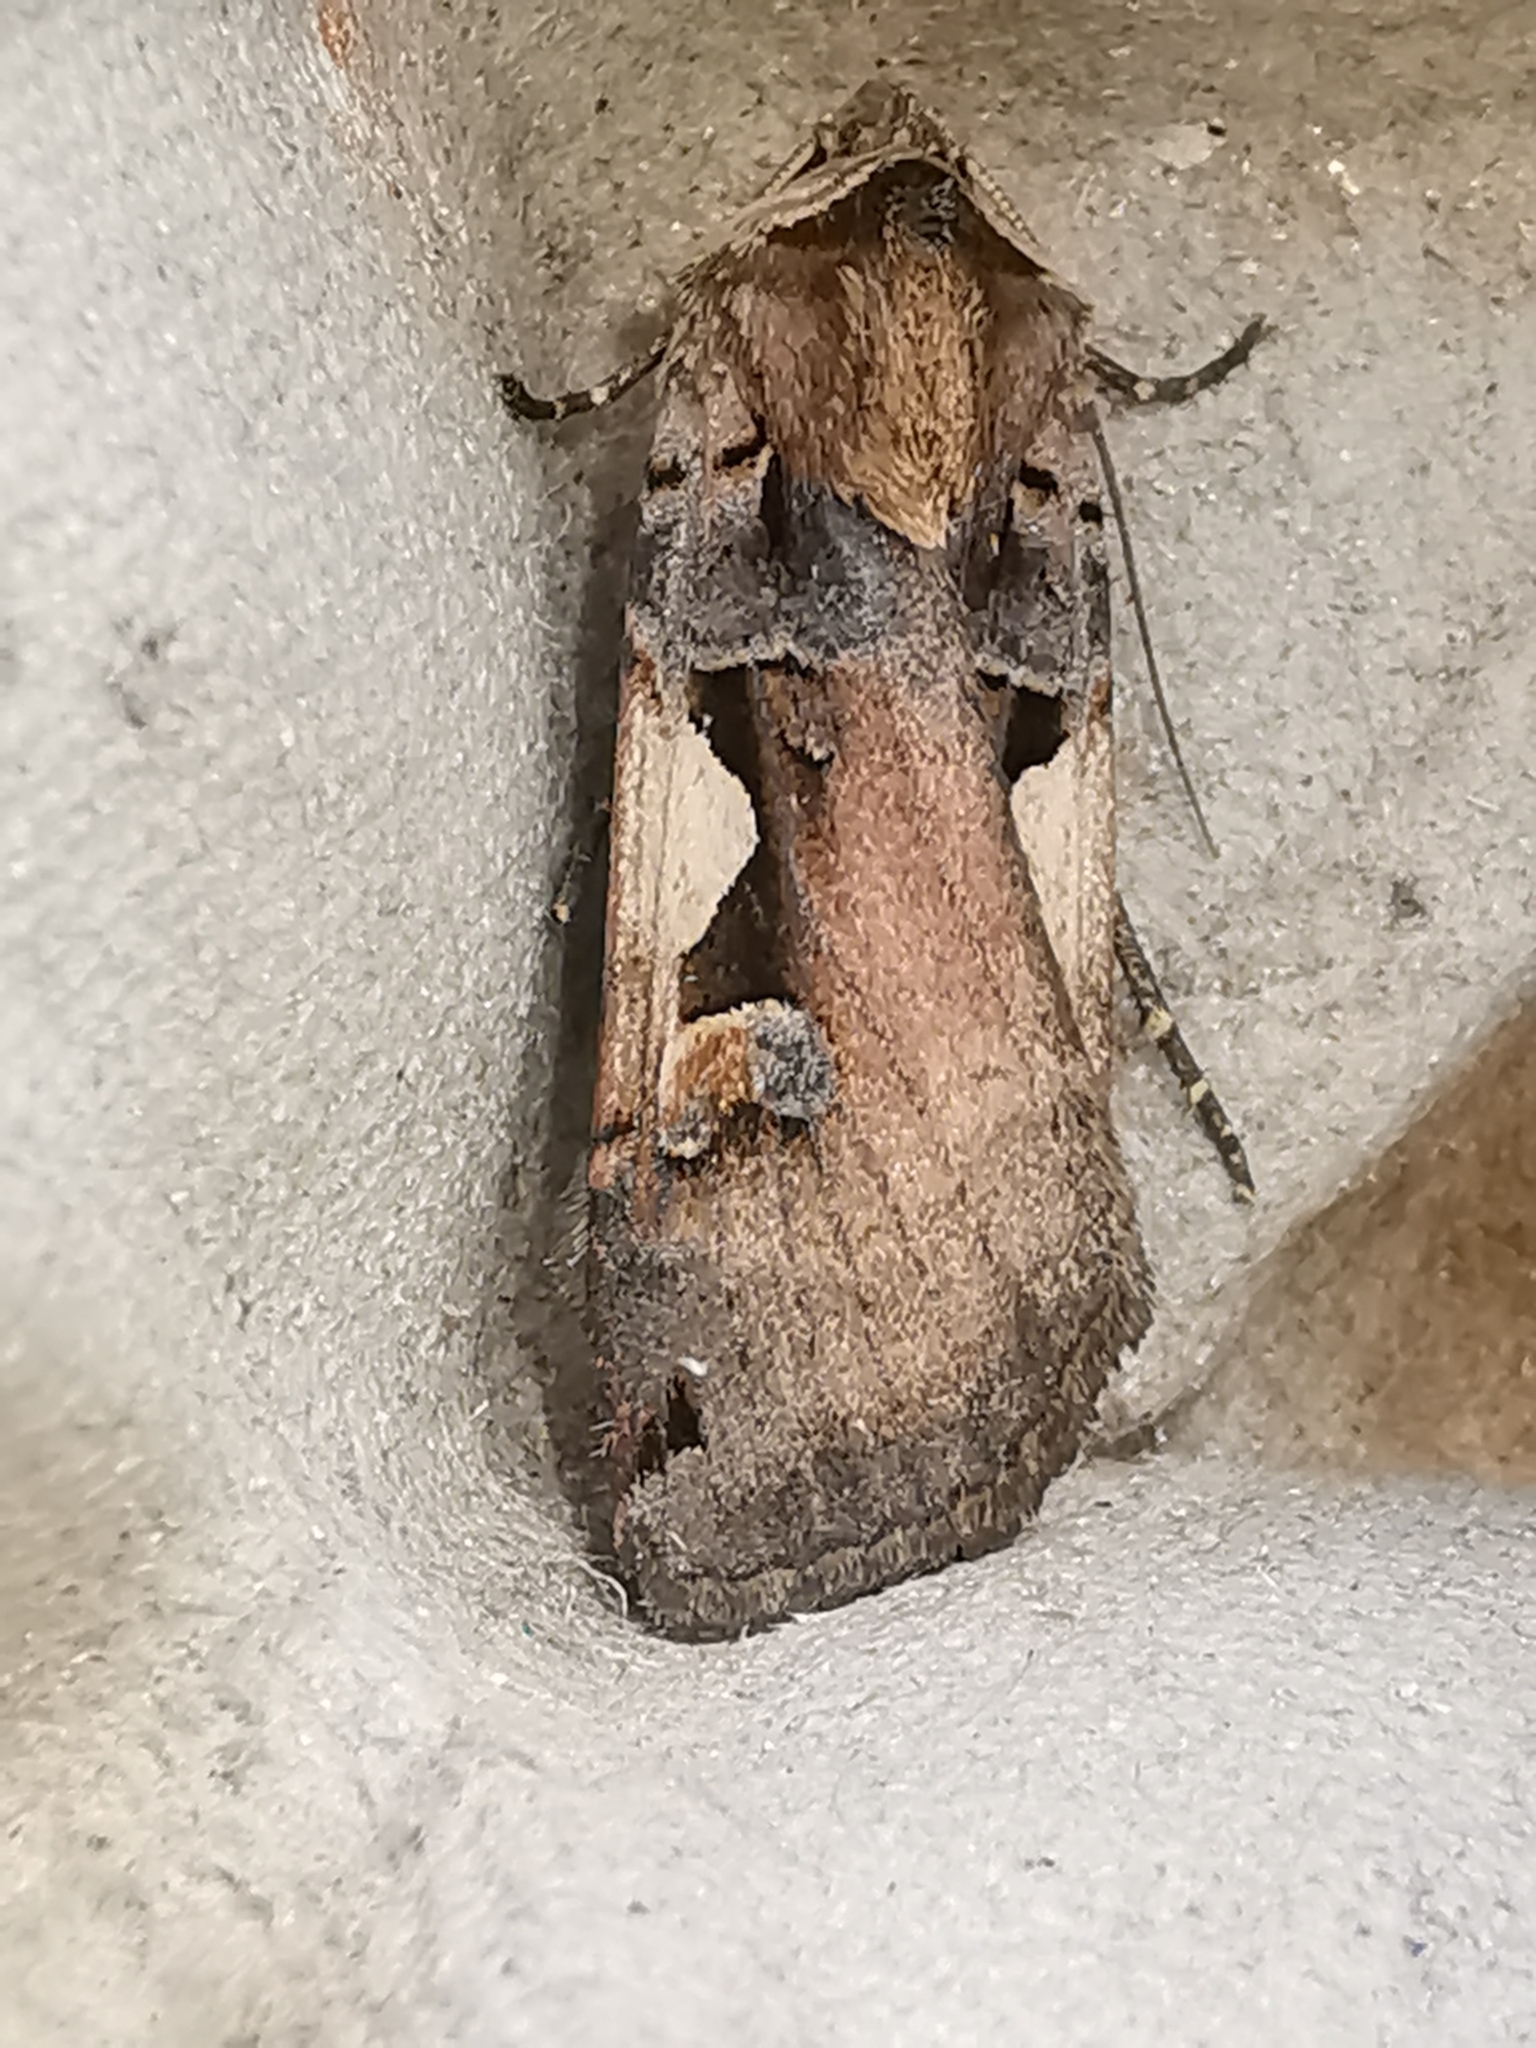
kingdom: Animalia
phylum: Arthropoda
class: Insecta
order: Lepidoptera
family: Noctuidae
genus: Xestia
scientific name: Xestia c-nigrum
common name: Setaceous hebrew character
